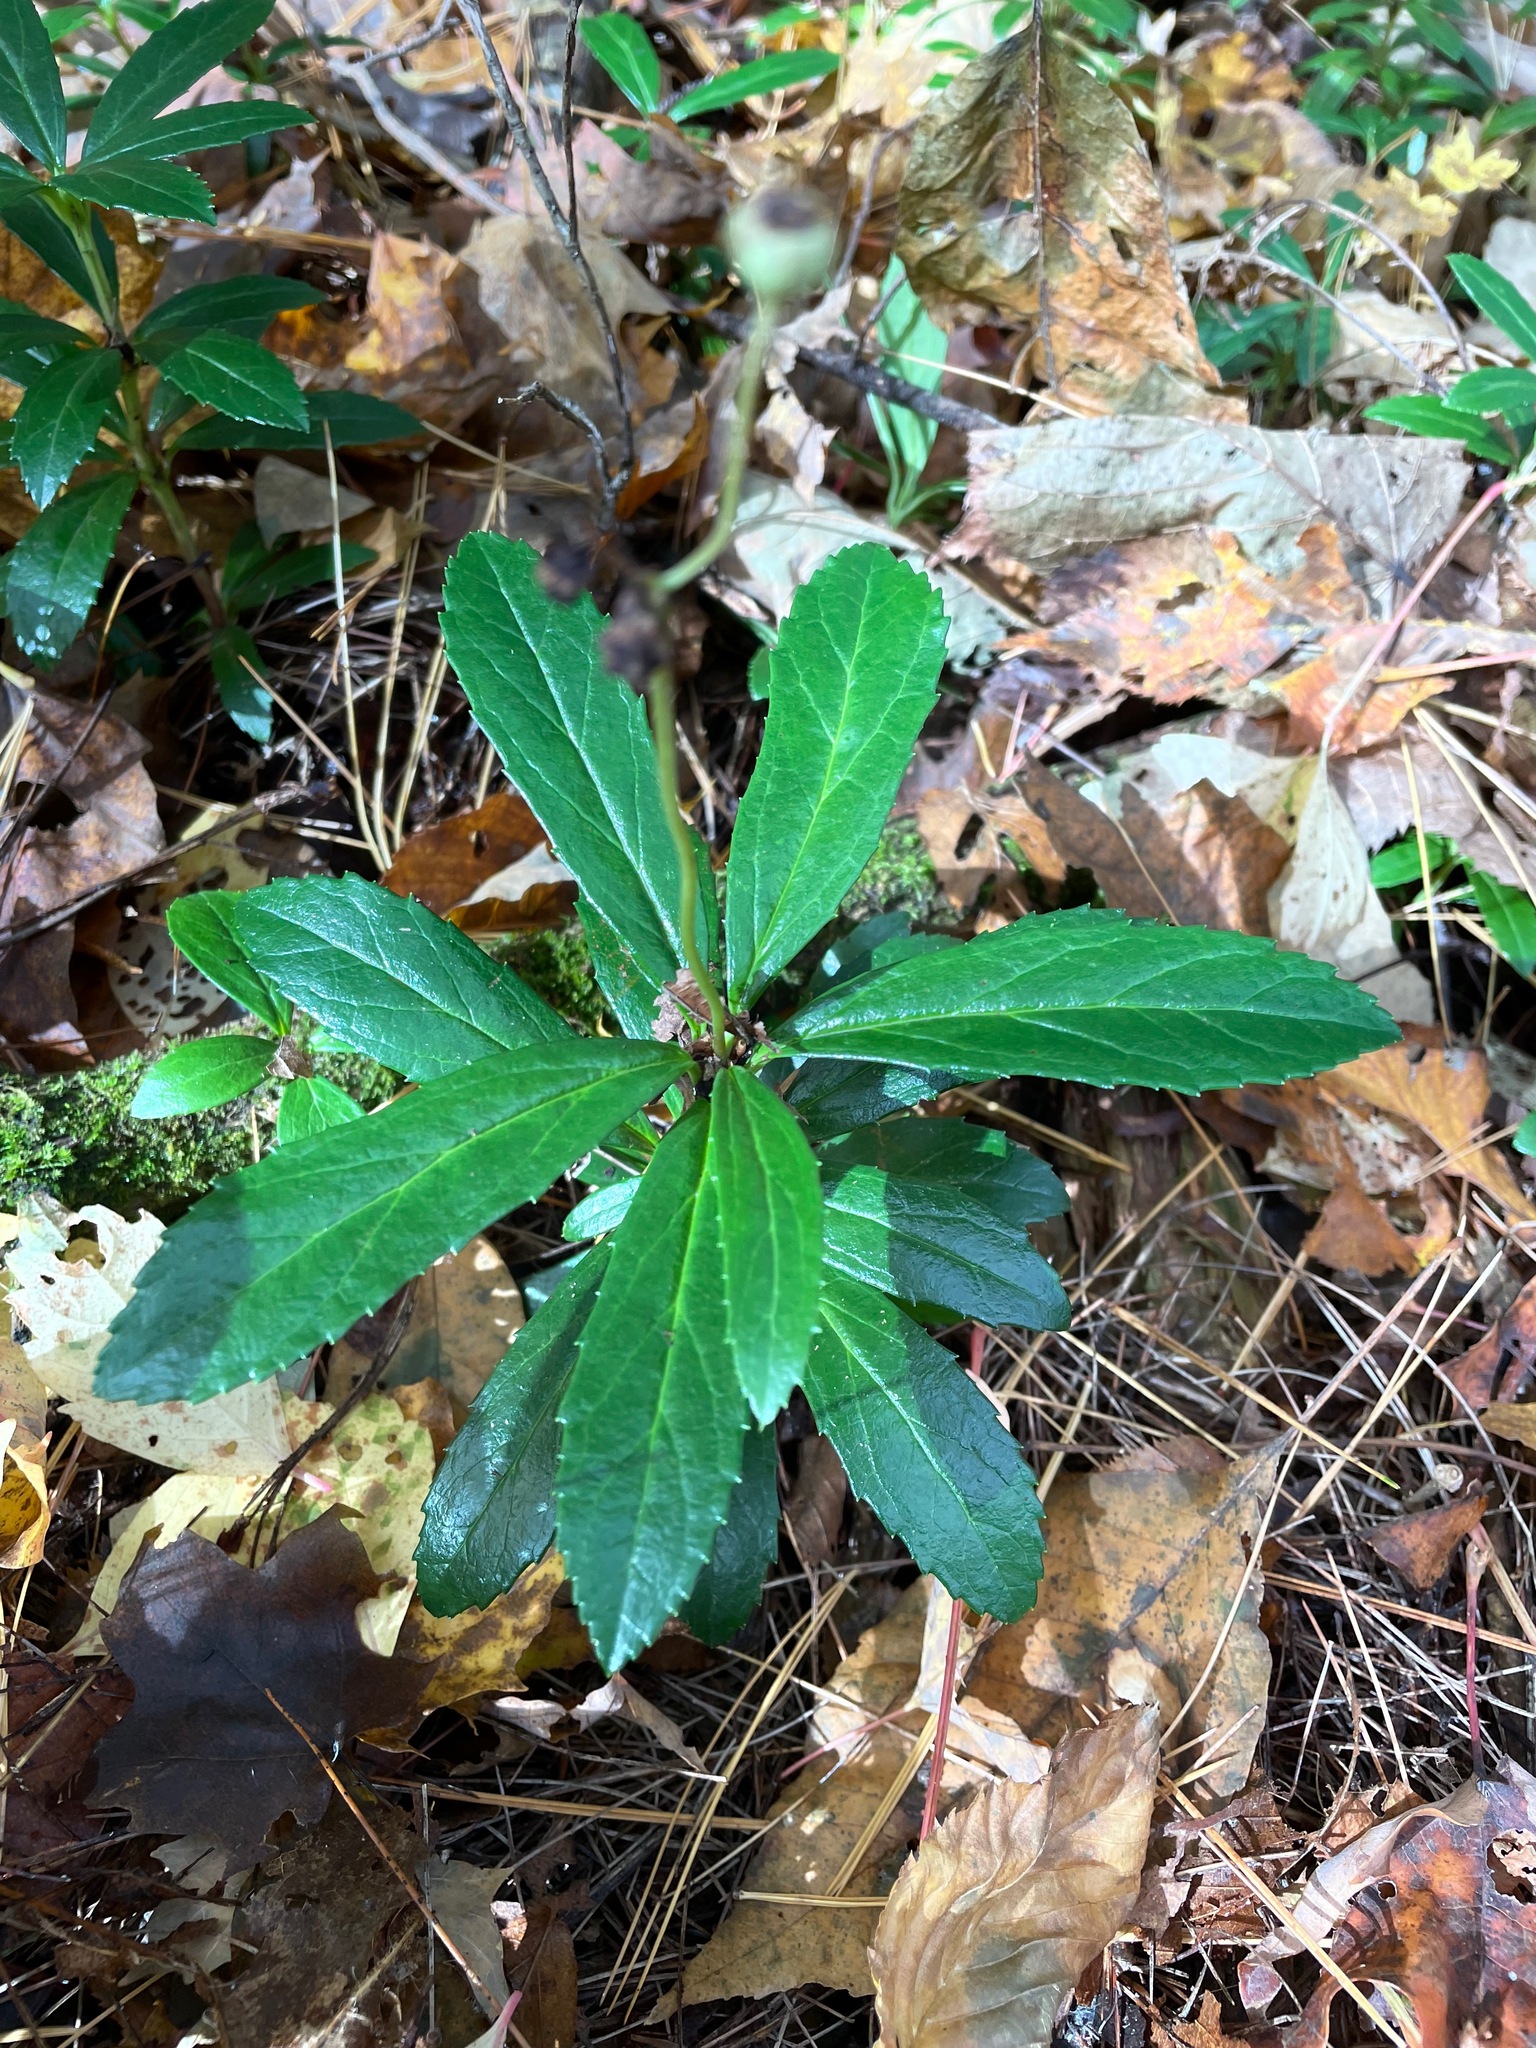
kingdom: Plantae
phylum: Tracheophyta
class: Magnoliopsida
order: Ericales
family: Ericaceae
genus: Chimaphila
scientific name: Chimaphila umbellata
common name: Pipsissewa
